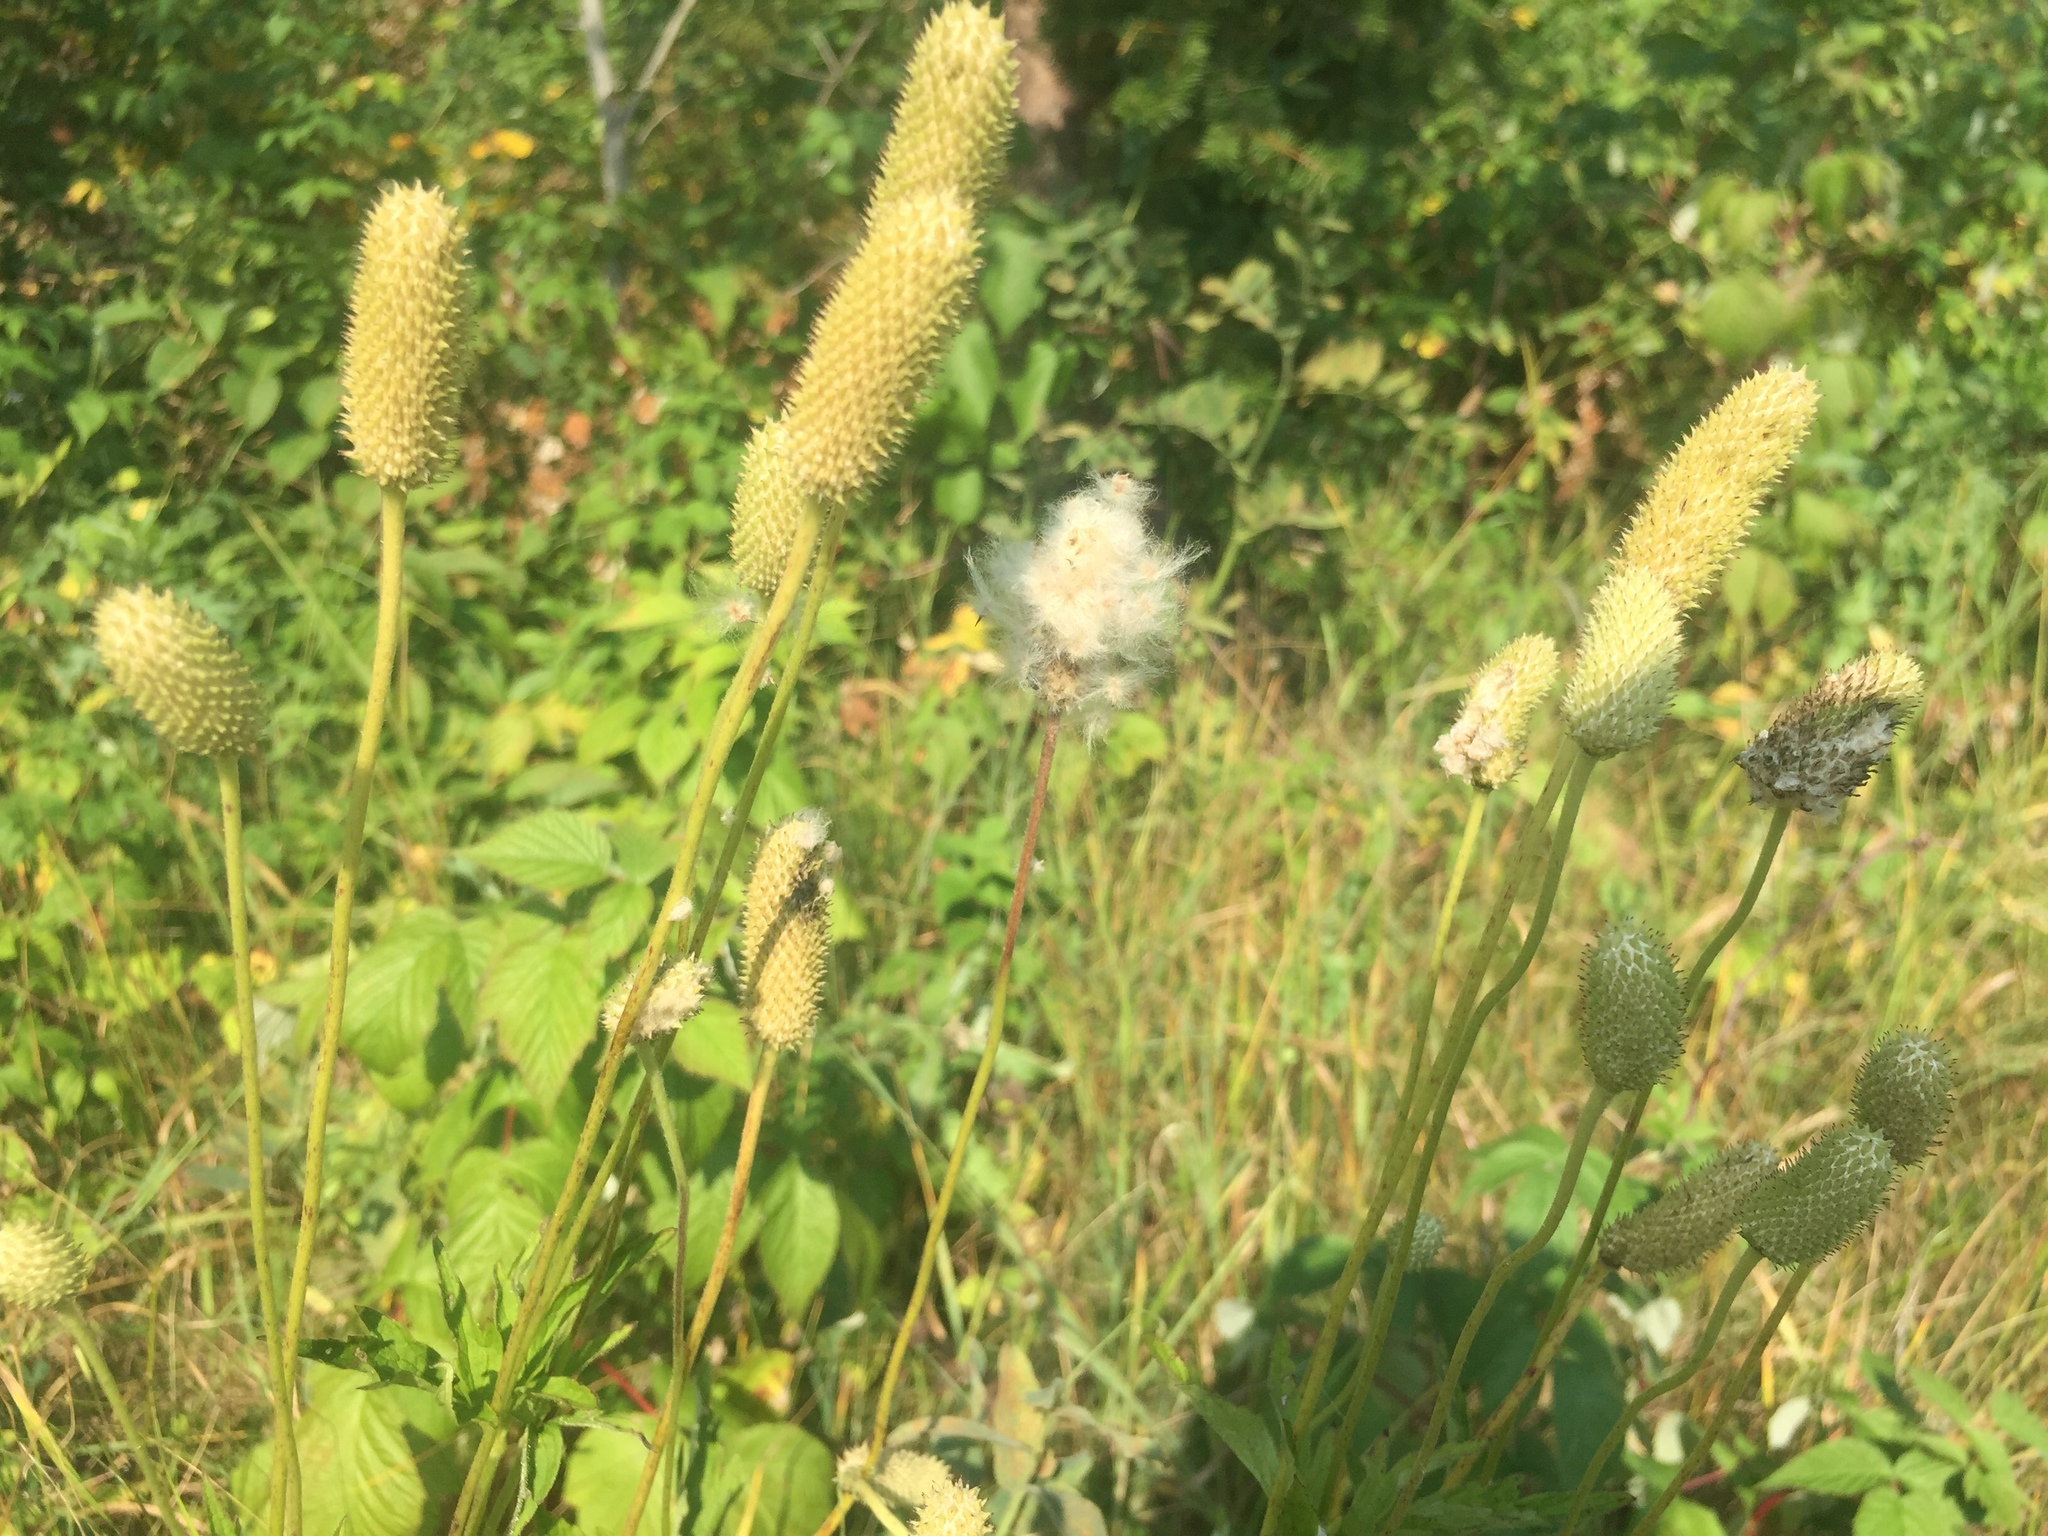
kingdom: Plantae
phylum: Tracheophyta
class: Magnoliopsida
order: Ranunculales
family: Ranunculaceae
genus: Anemone
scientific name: Anemone cylindrica
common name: Candle anemone
